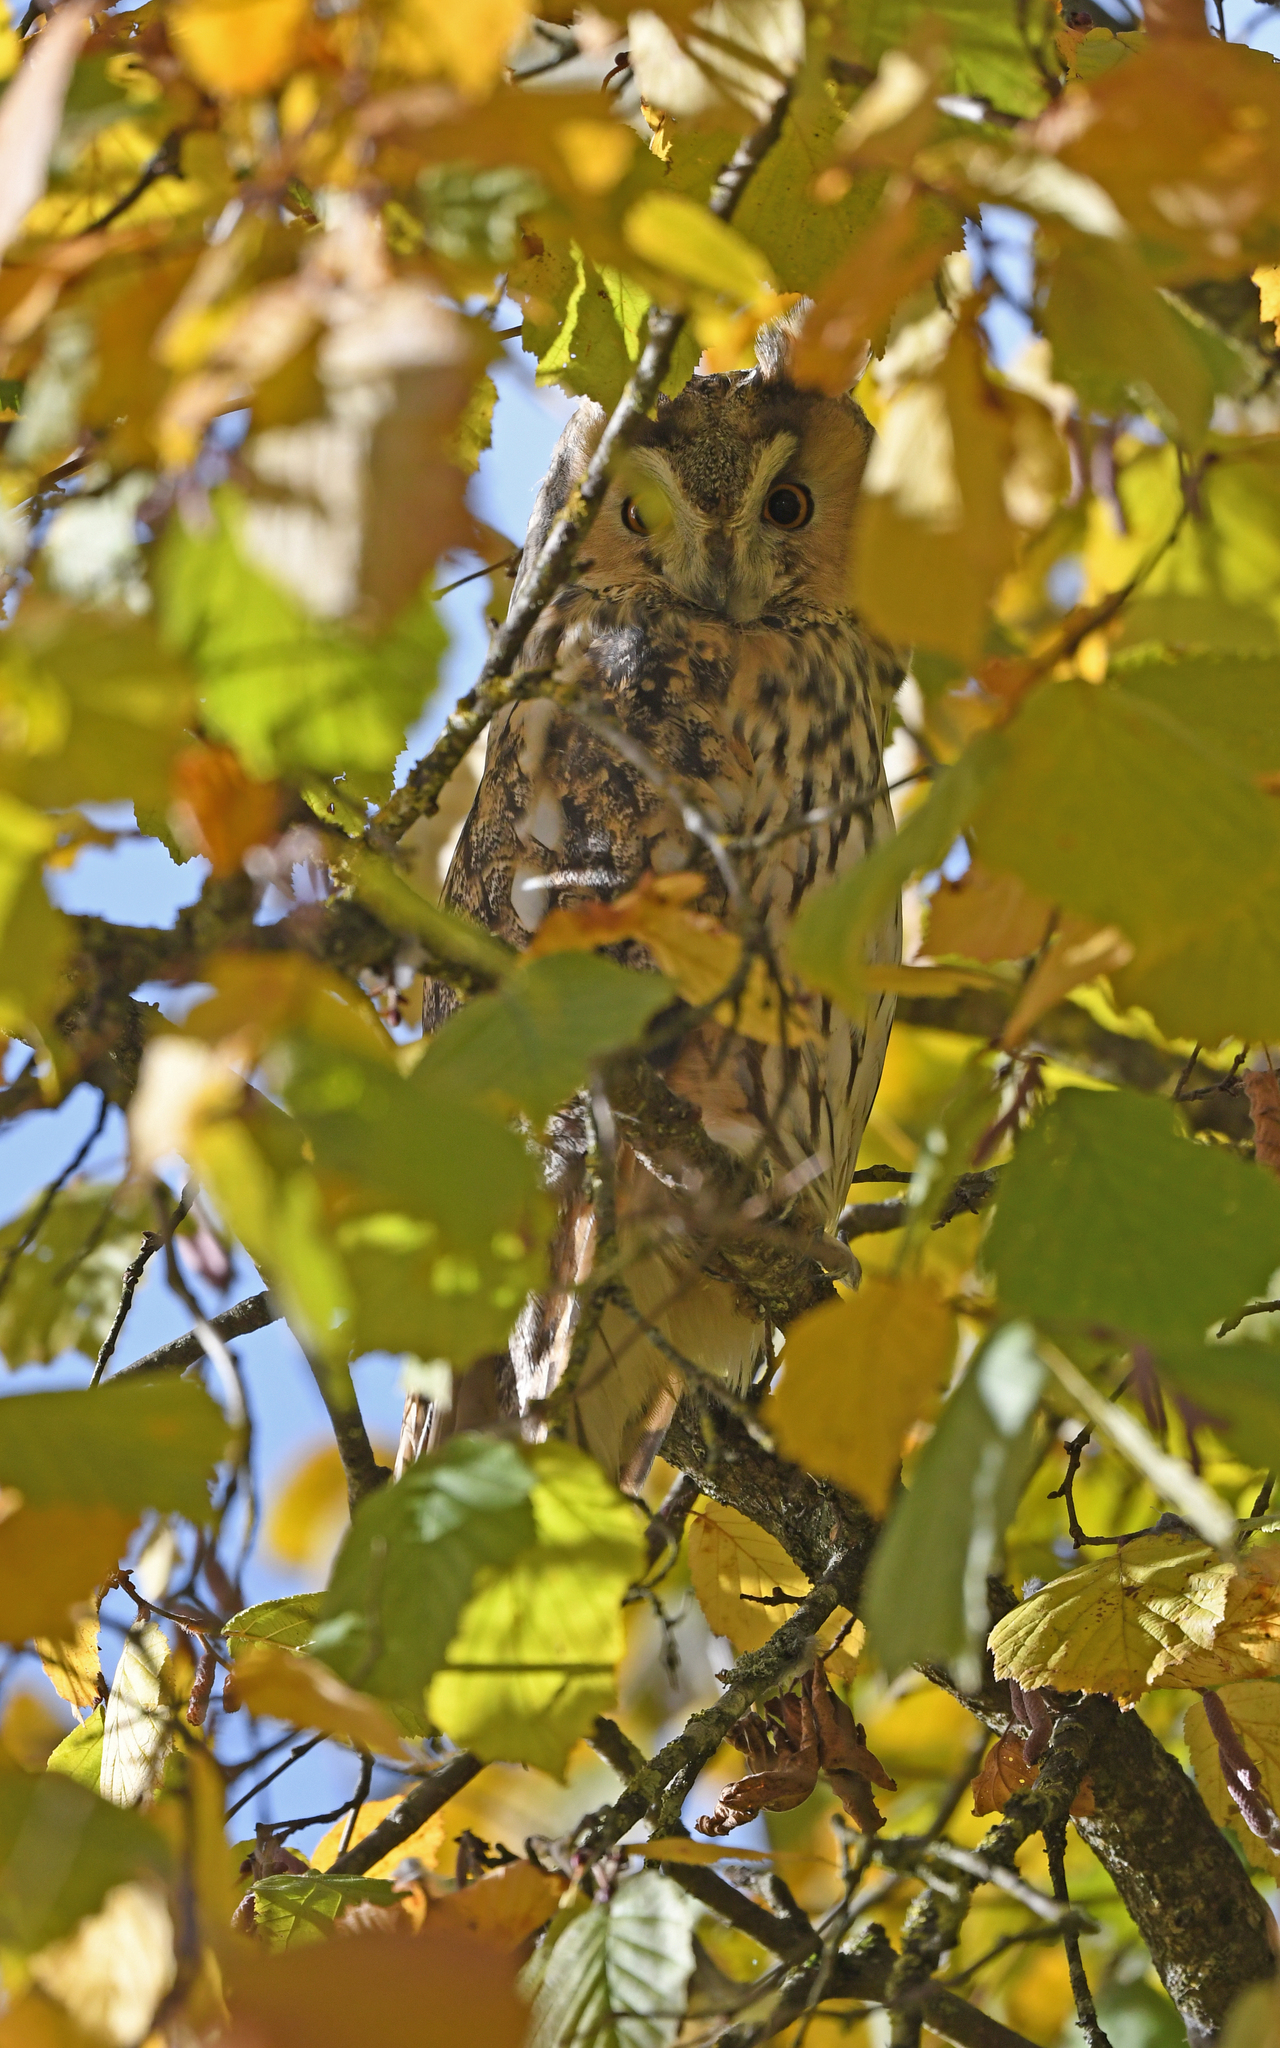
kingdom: Animalia
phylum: Chordata
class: Aves
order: Strigiformes
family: Strigidae
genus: Asio
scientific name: Asio otus
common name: Long-eared owl
